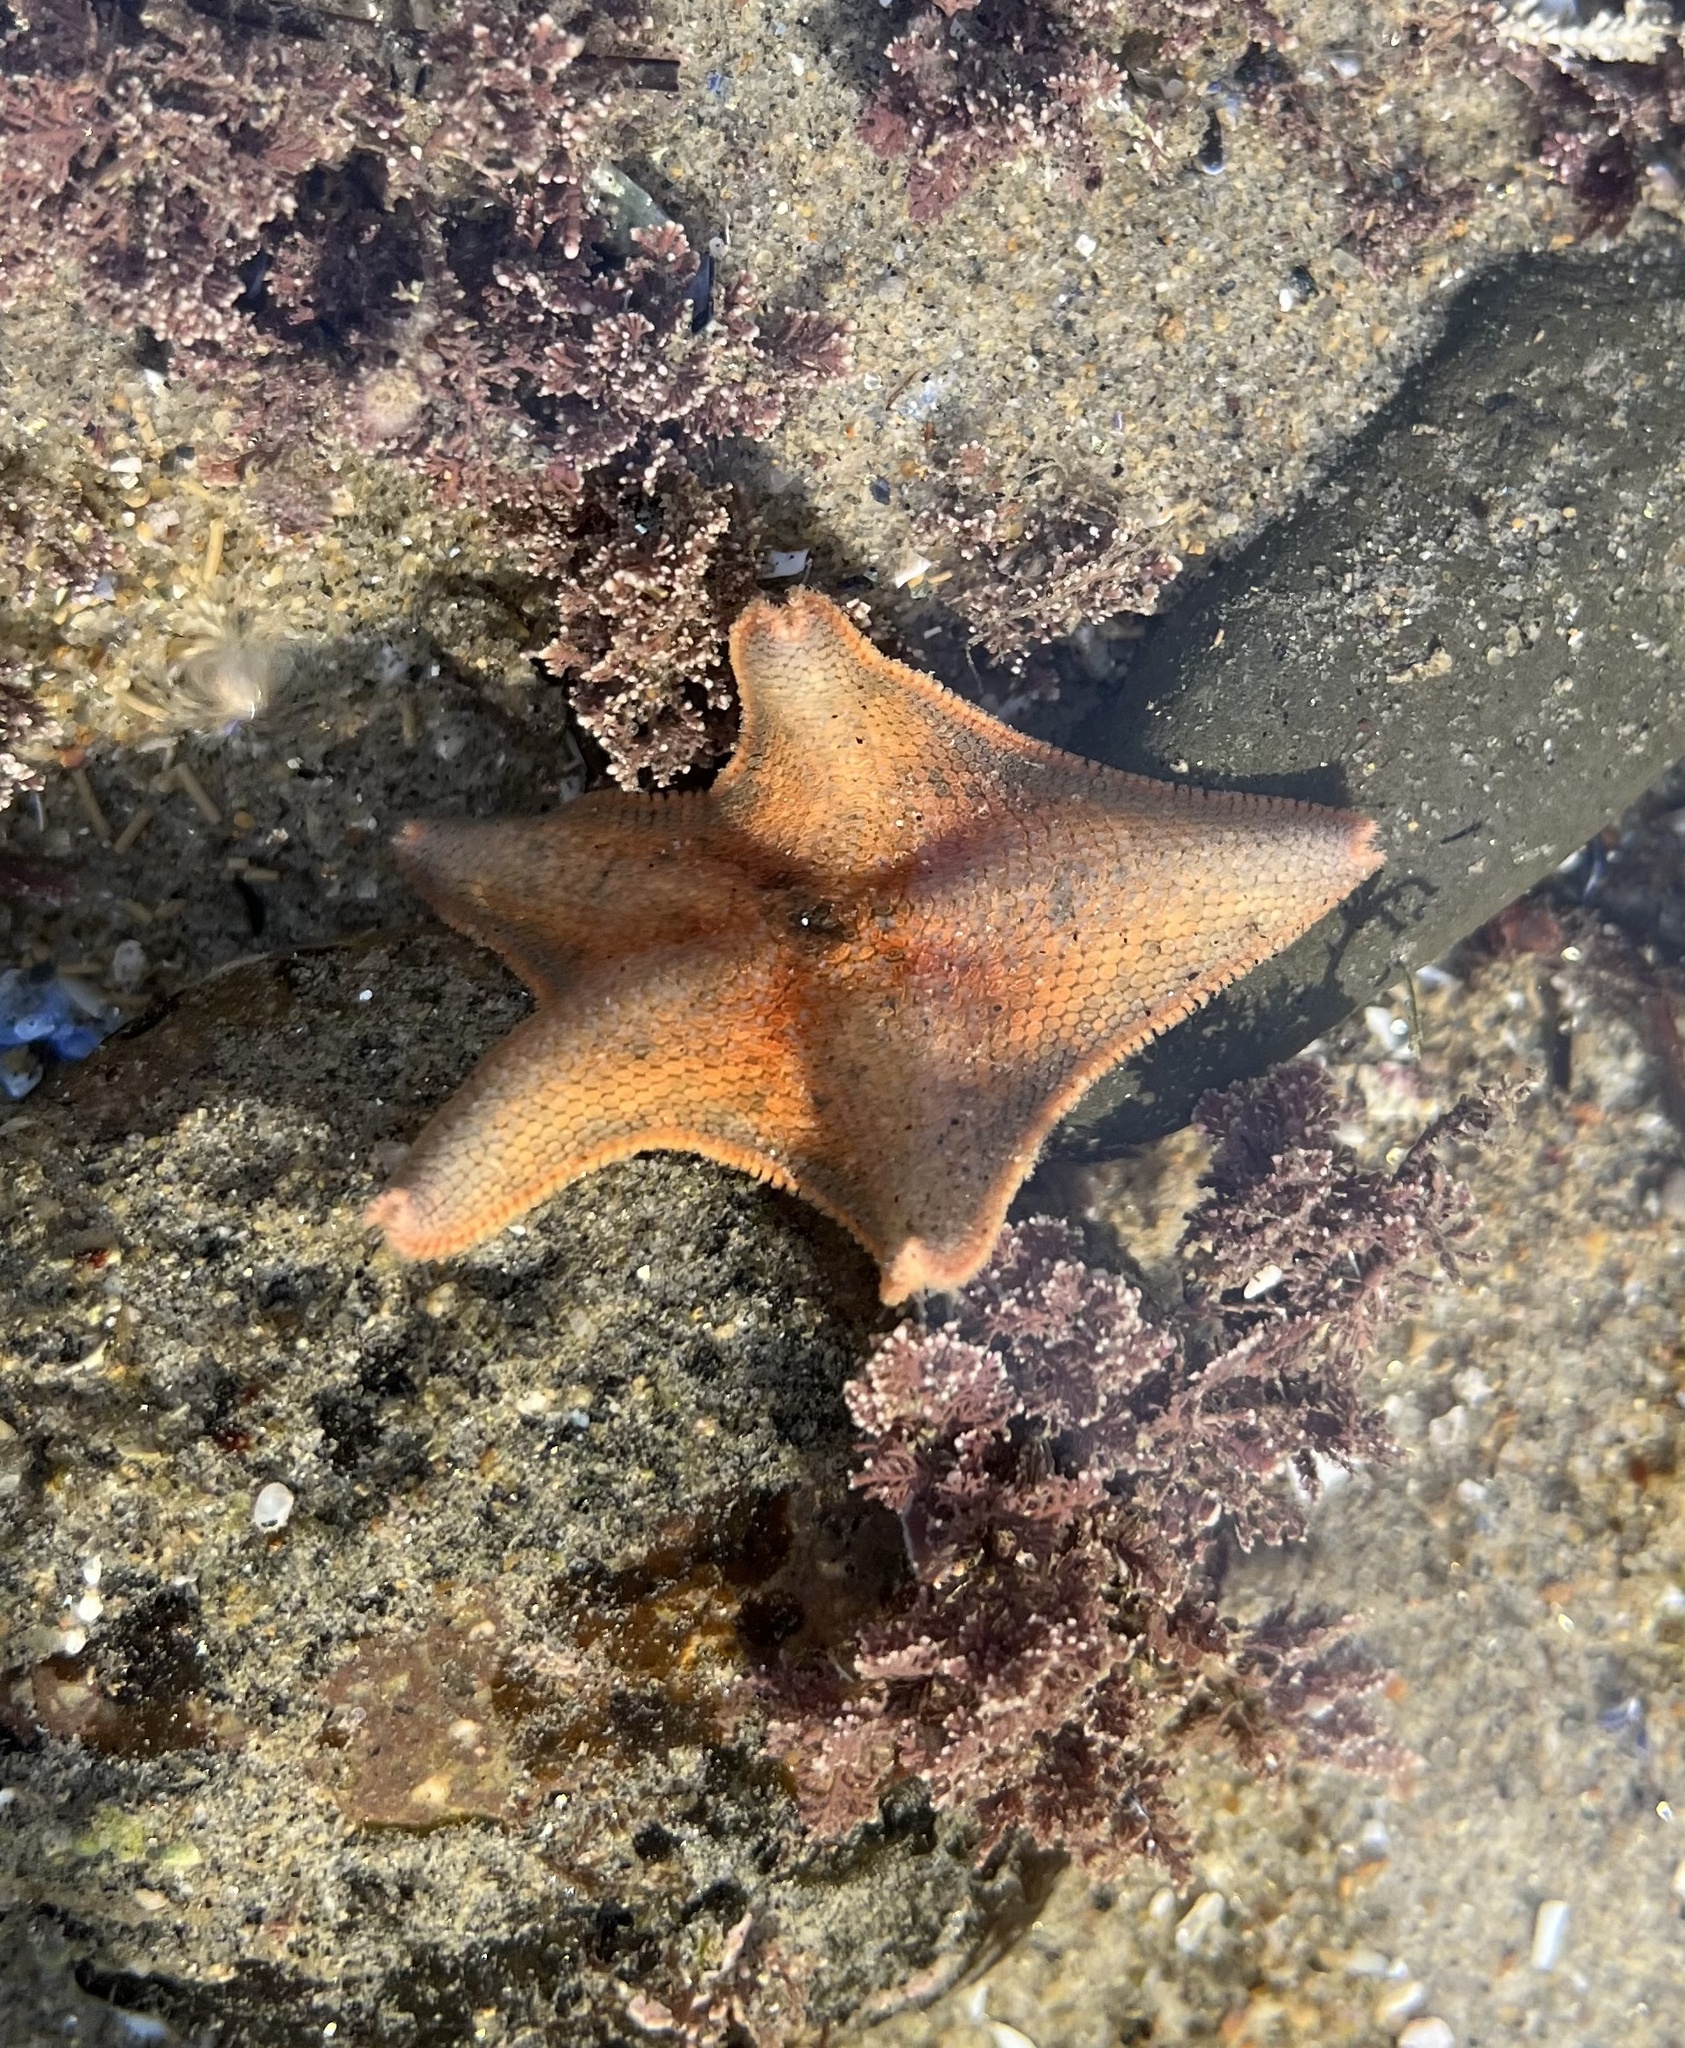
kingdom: Animalia
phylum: Echinodermata
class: Asteroidea
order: Valvatida
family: Asterinidae
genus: Patiria
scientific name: Patiria miniata
